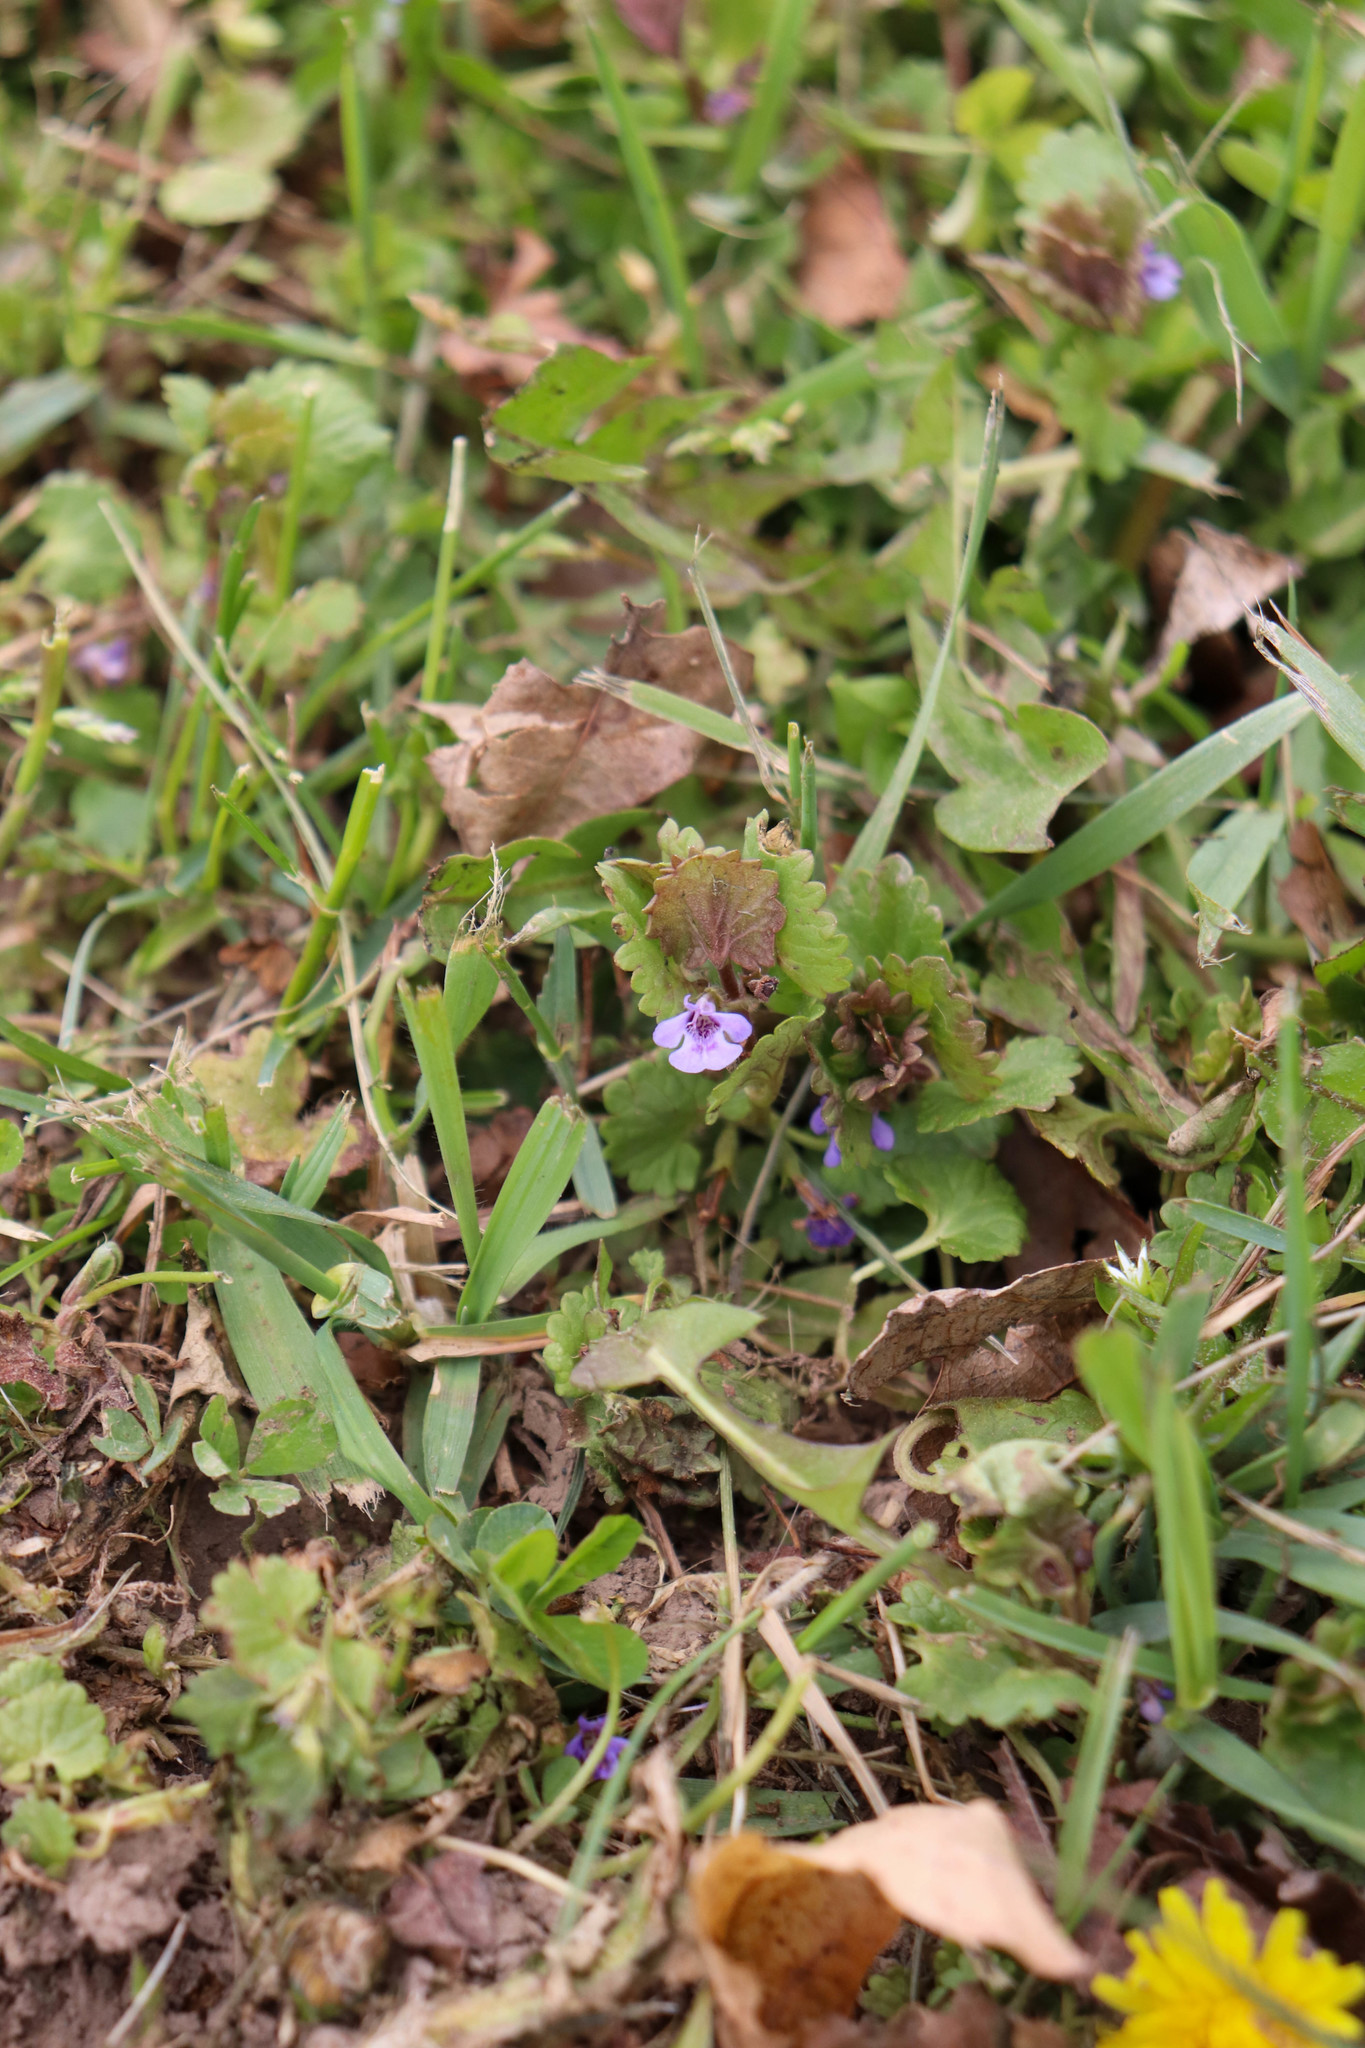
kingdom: Plantae
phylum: Tracheophyta
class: Magnoliopsida
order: Lamiales
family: Lamiaceae
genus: Glechoma
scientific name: Glechoma hederacea
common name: Ground ivy
